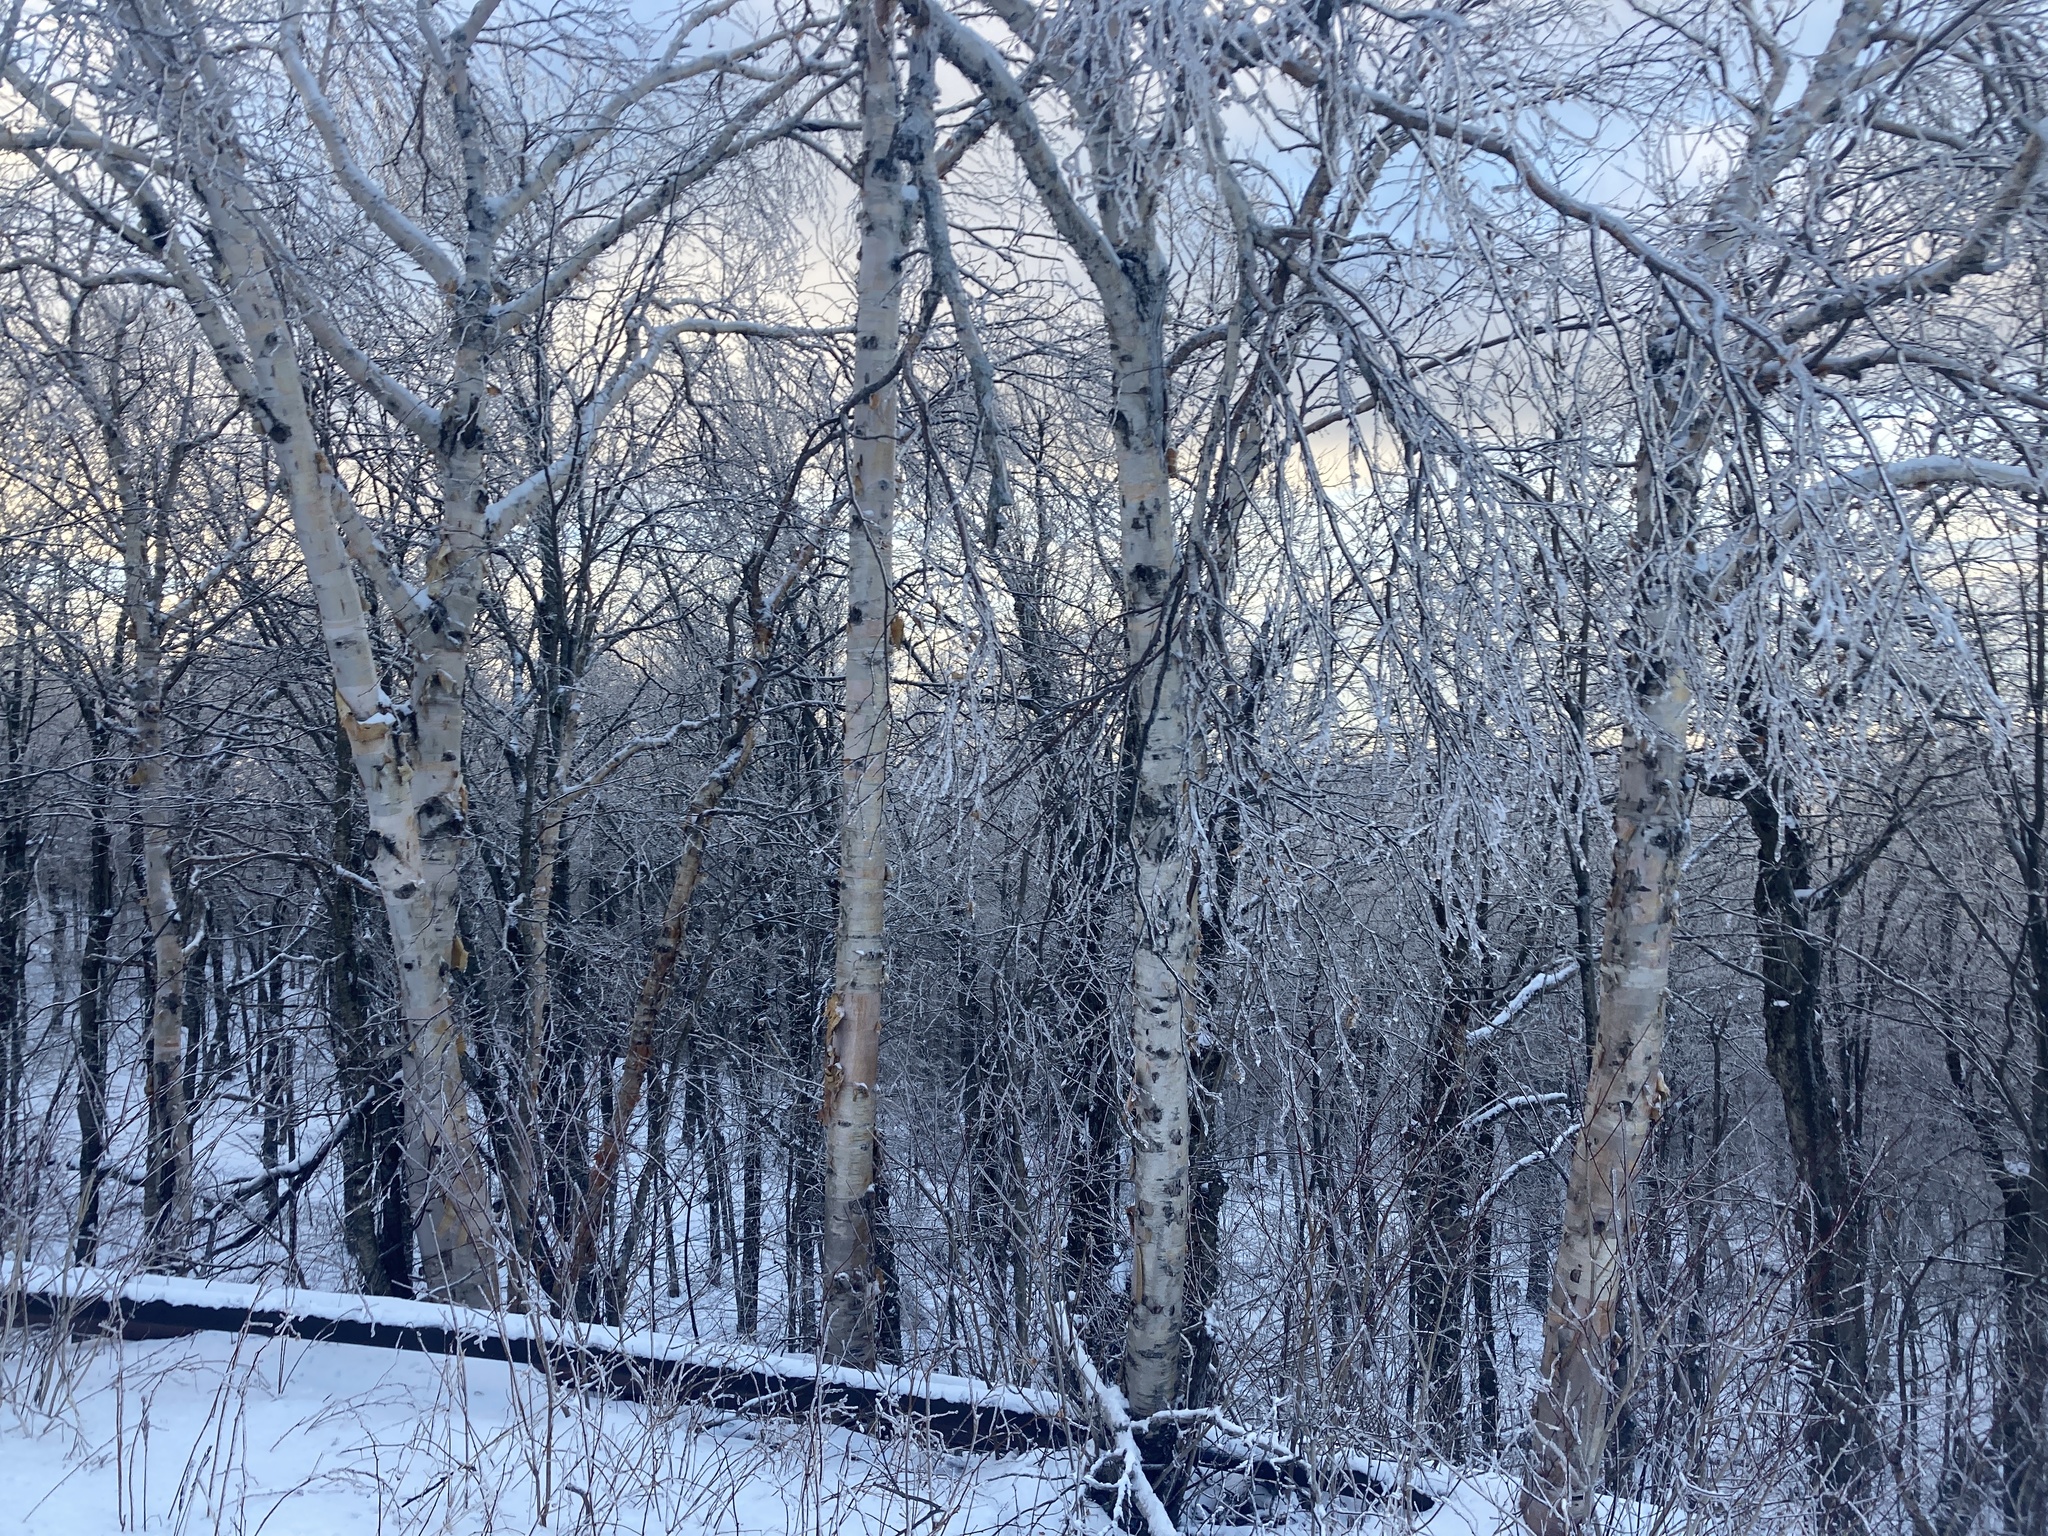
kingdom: Plantae
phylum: Tracheophyta
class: Magnoliopsida
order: Fagales
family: Betulaceae
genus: Betula
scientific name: Betula papyrifera
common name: Paper birch
